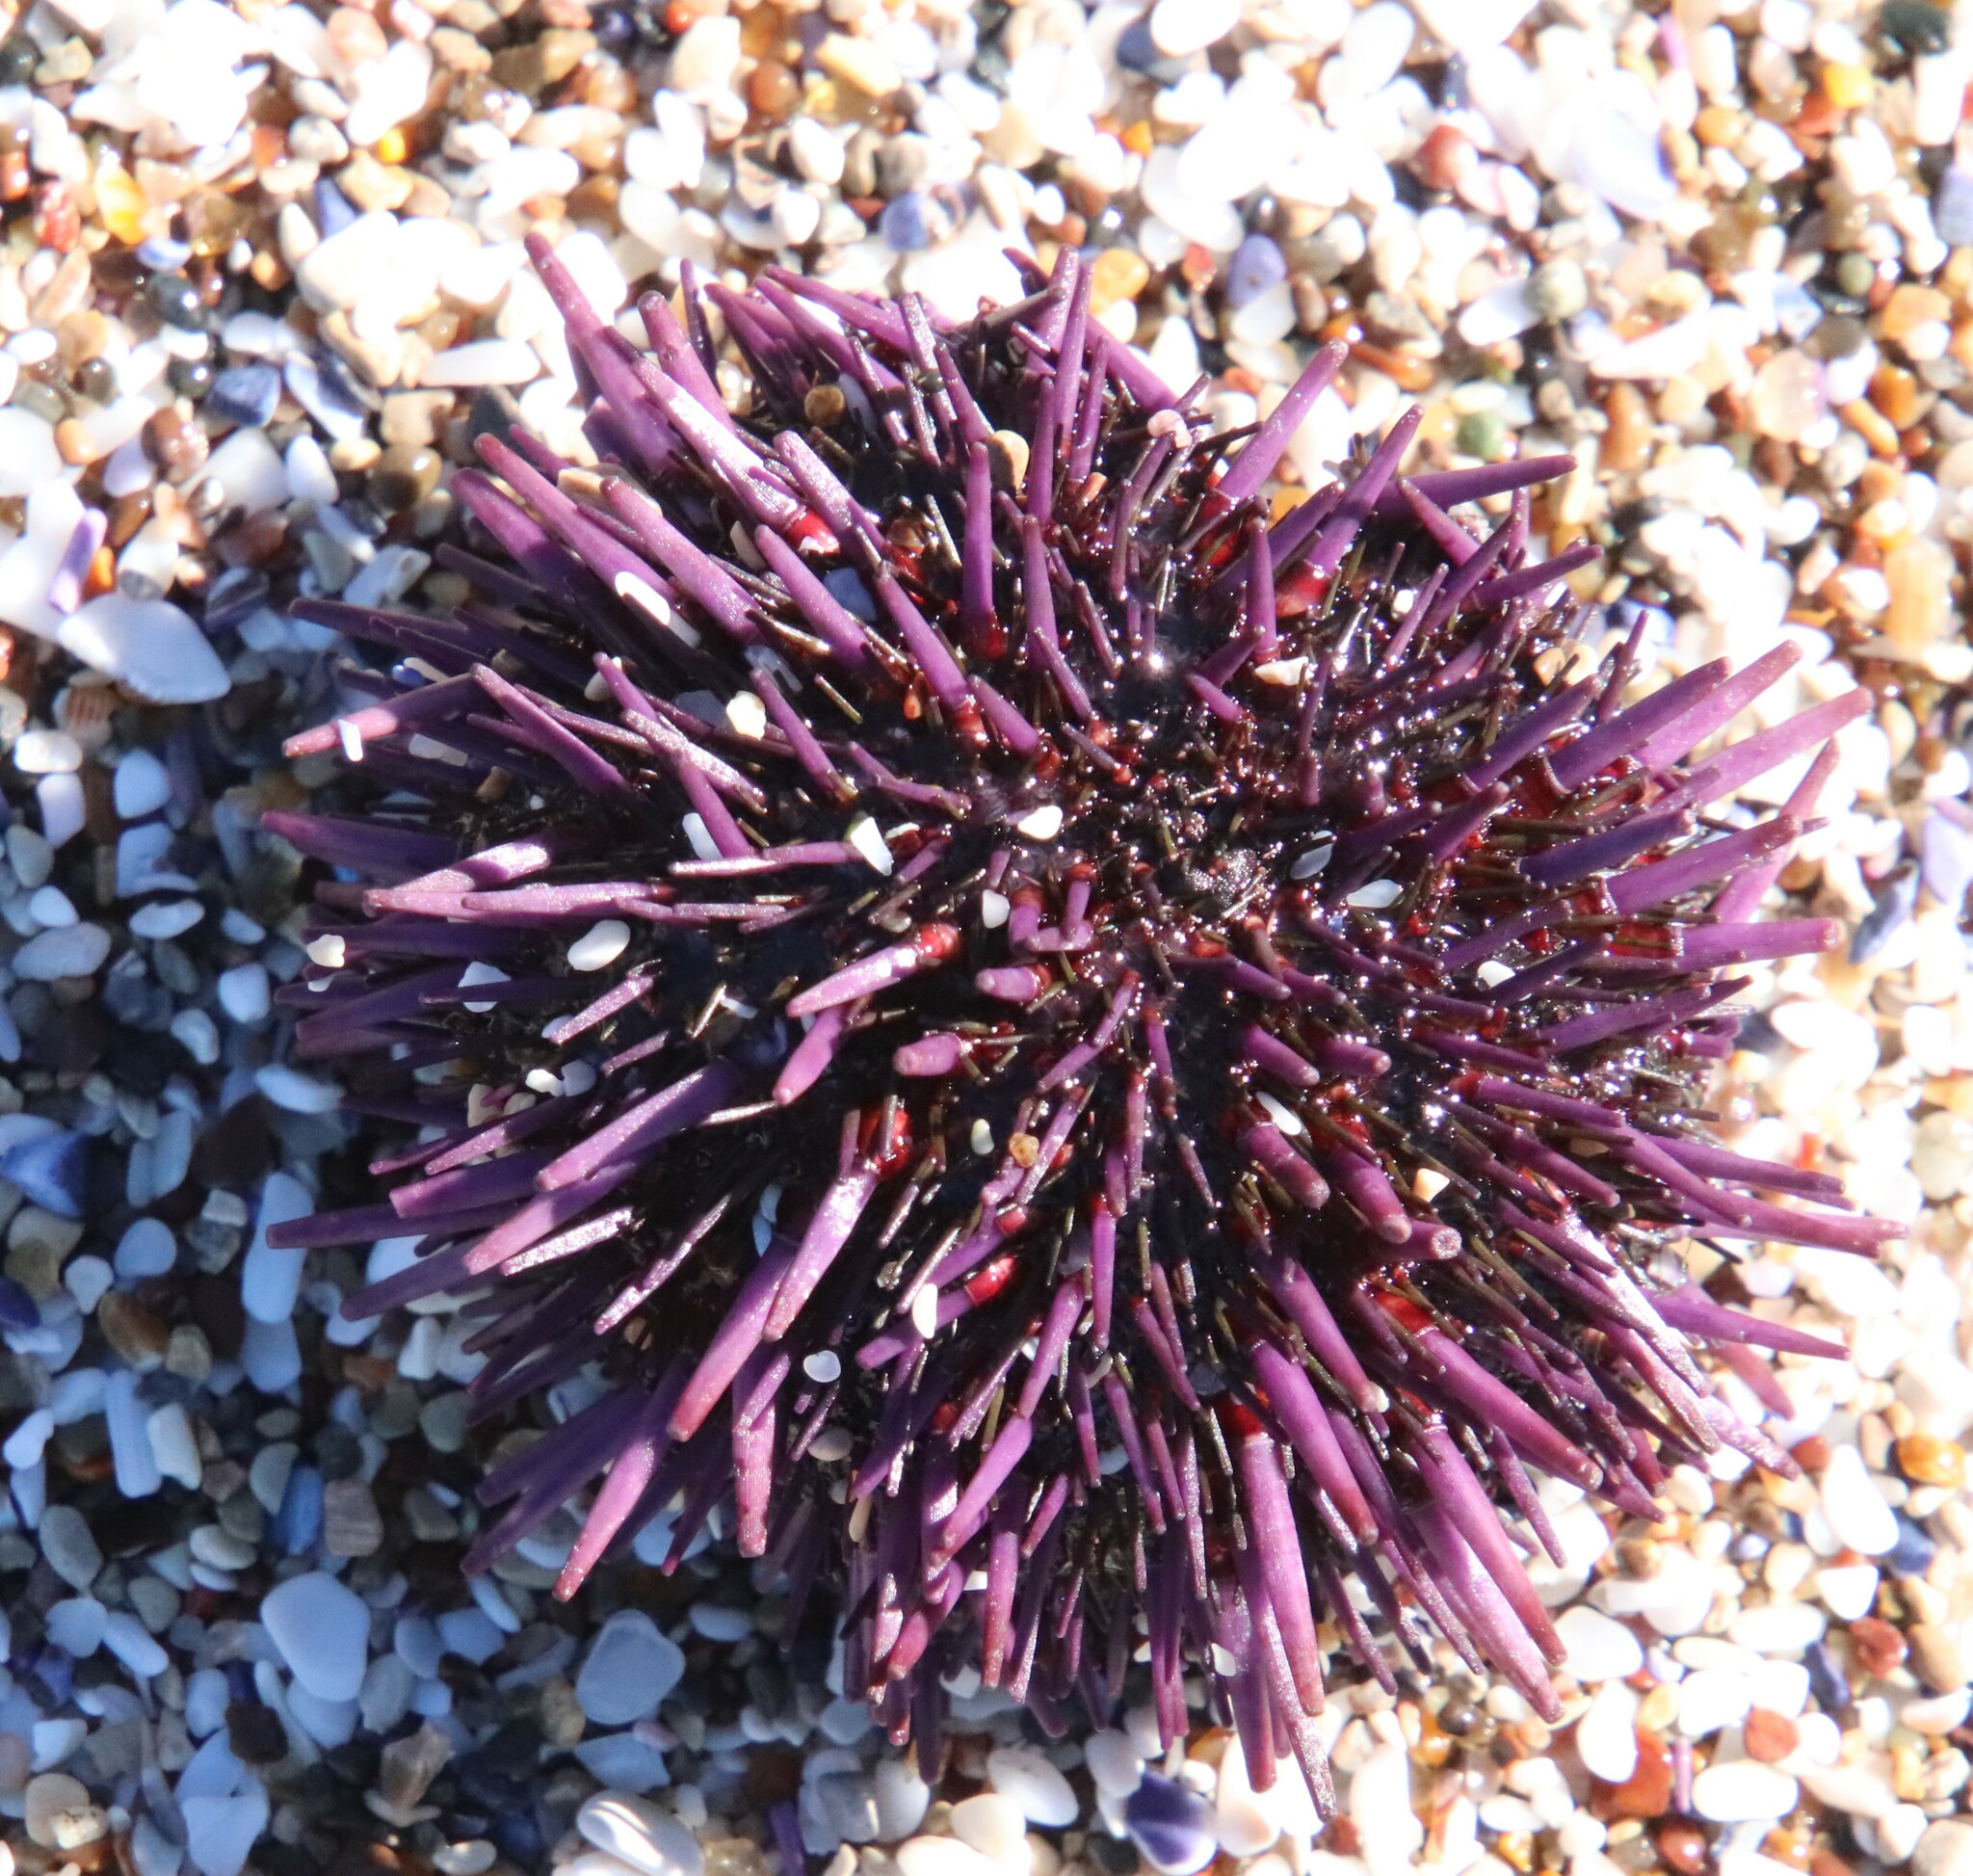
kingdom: Animalia
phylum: Echinodermata
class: Echinoidea
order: Camarodonta
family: Strongylocentrotidae
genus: Strongylocentrotus
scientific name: Strongylocentrotus purpuratus
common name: Purple sea urchin
